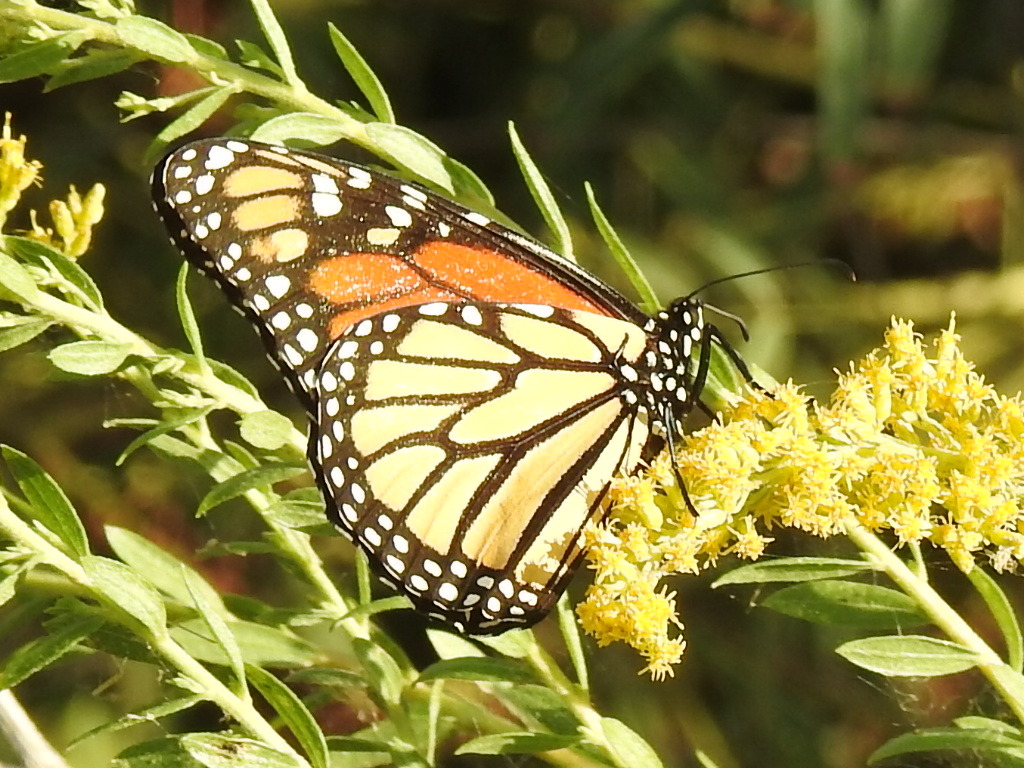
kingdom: Animalia
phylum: Arthropoda
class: Insecta
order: Lepidoptera
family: Nymphalidae
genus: Danaus
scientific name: Danaus plexippus
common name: Monarch
